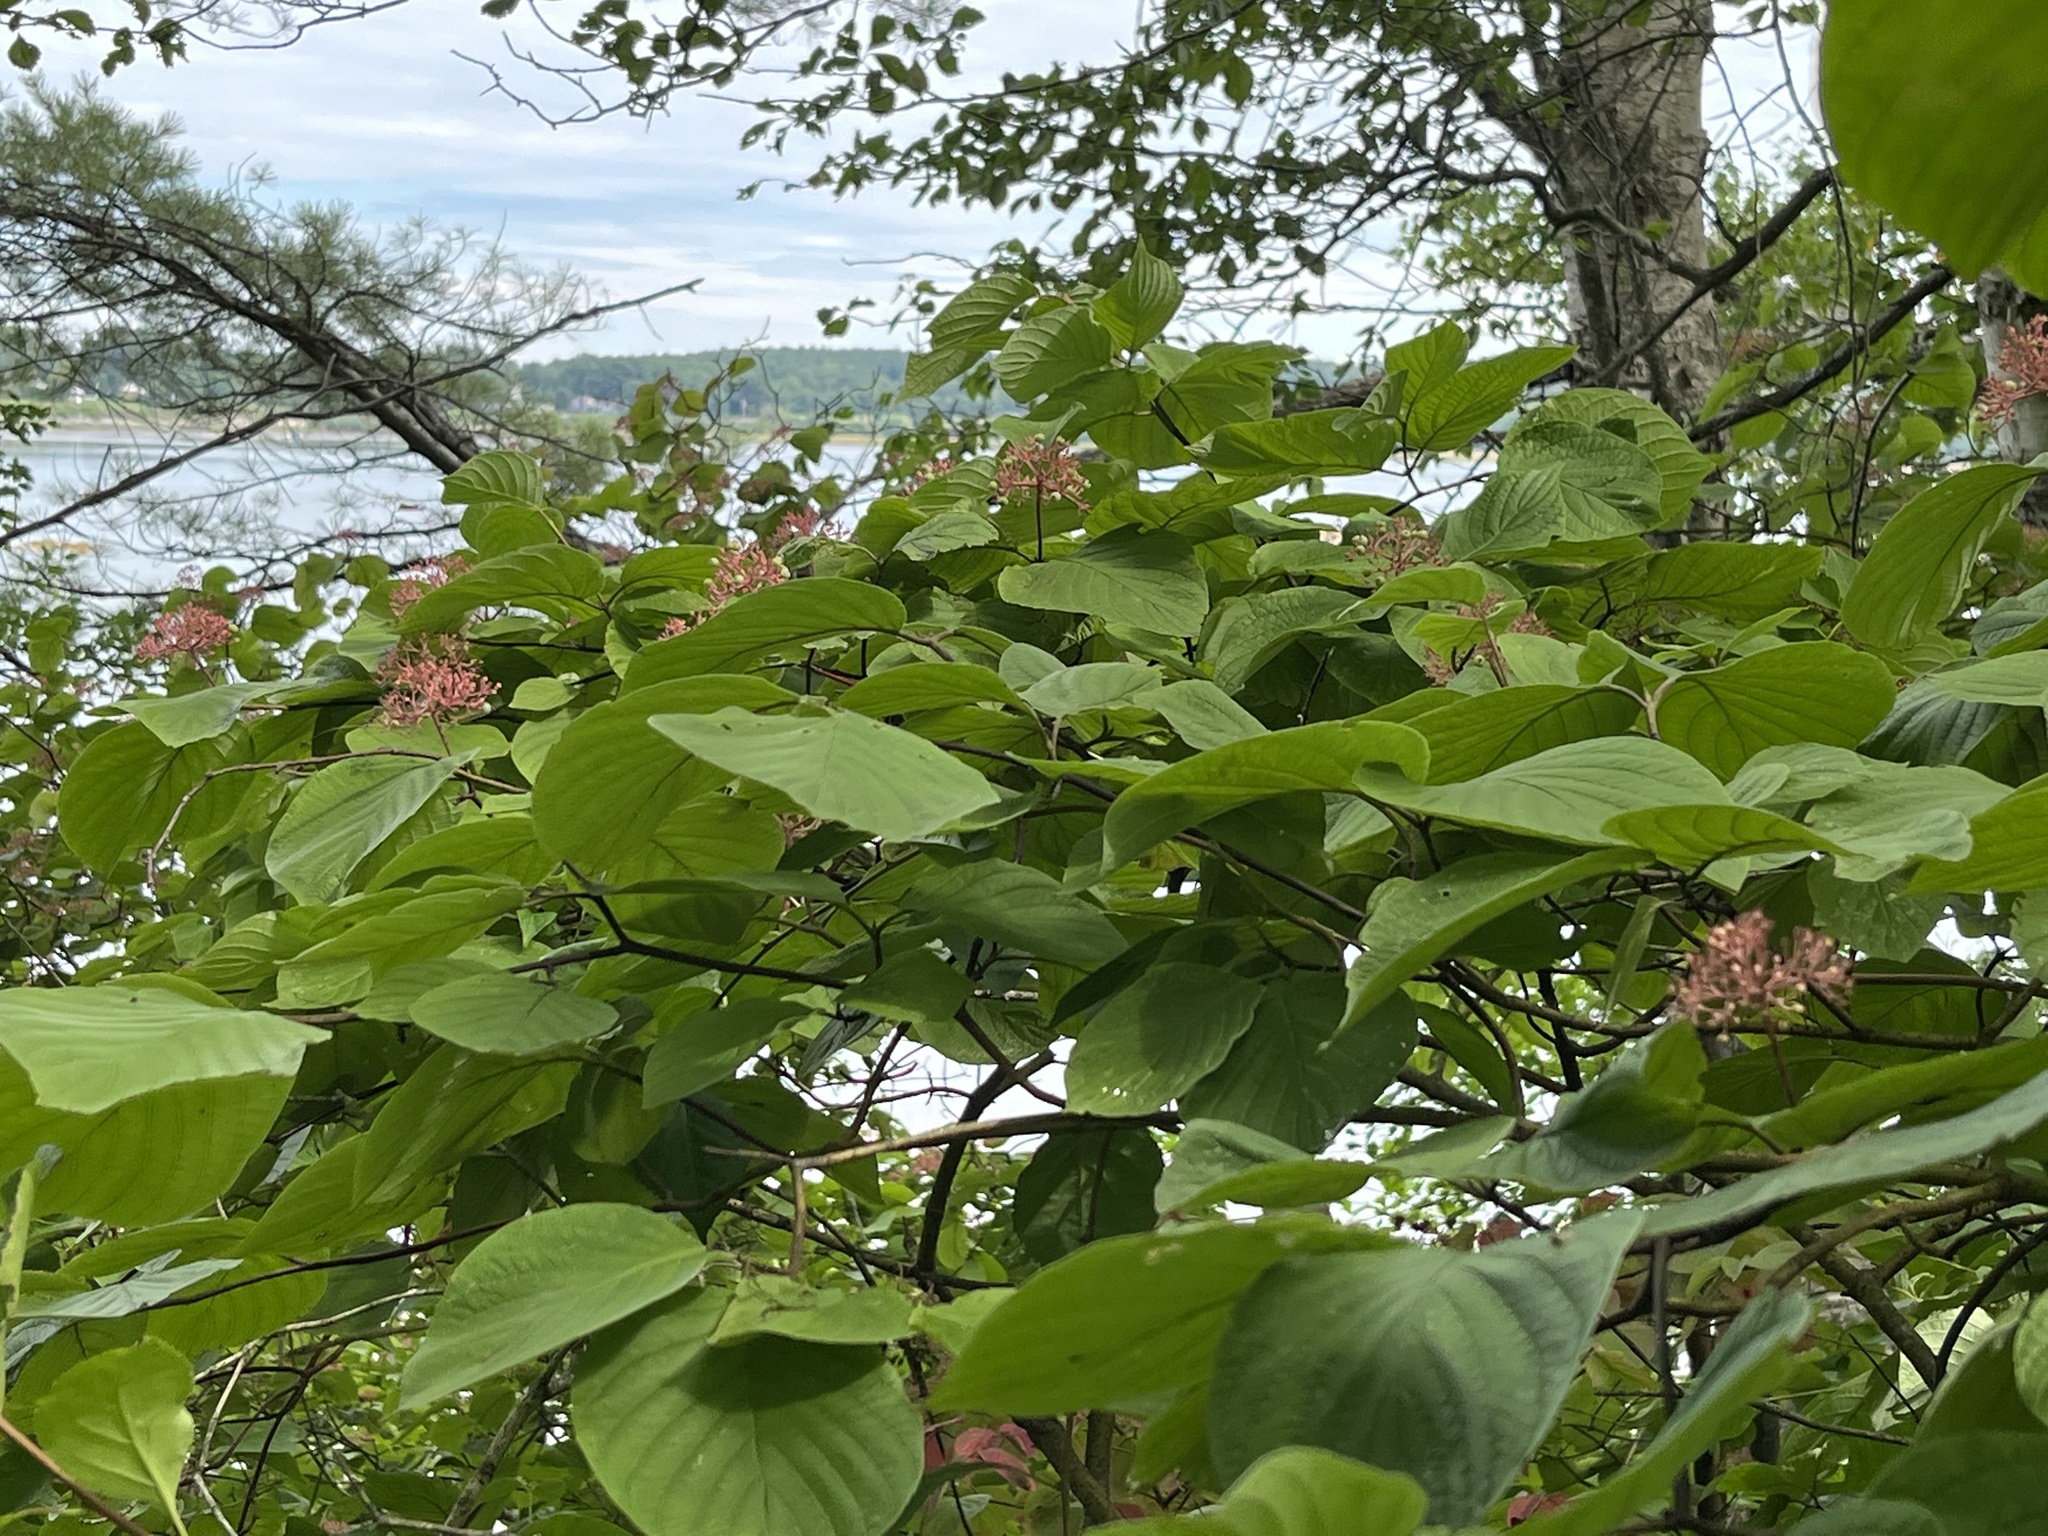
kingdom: Plantae
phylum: Tracheophyta
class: Magnoliopsida
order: Cornales
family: Cornaceae
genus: Cornus
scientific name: Cornus rugosa
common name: Round-leaf dogwood
